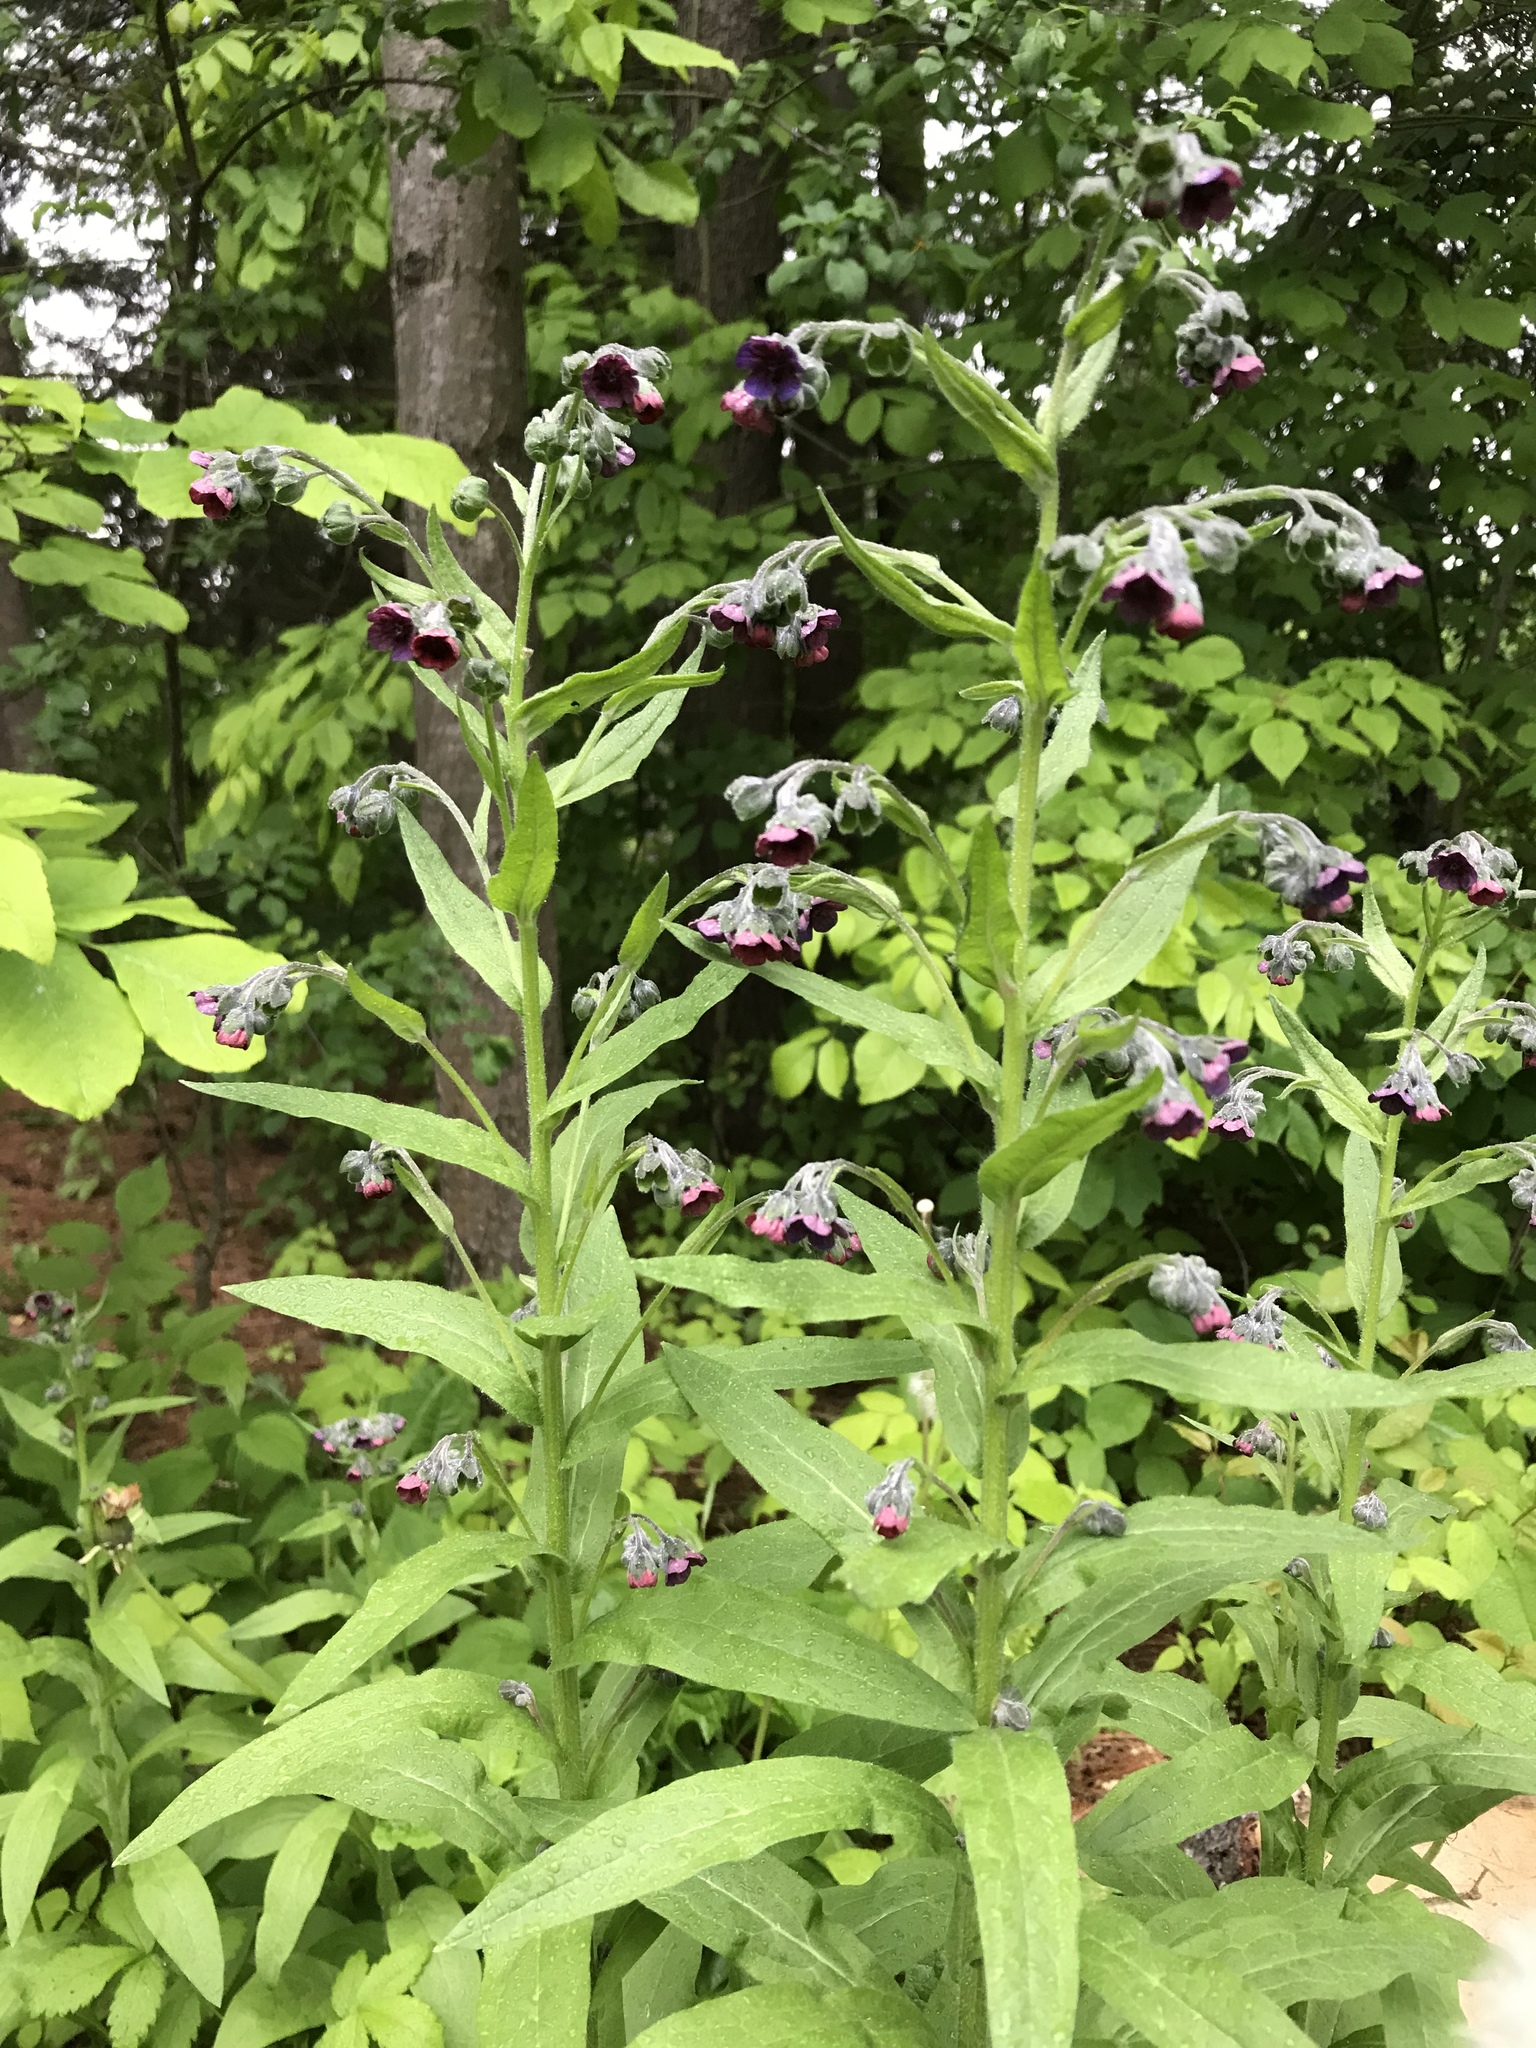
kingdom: Plantae
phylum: Tracheophyta
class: Magnoliopsida
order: Boraginales
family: Boraginaceae
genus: Cynoglossum
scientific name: Cynoglossum officinale
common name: Hound's-tongue
